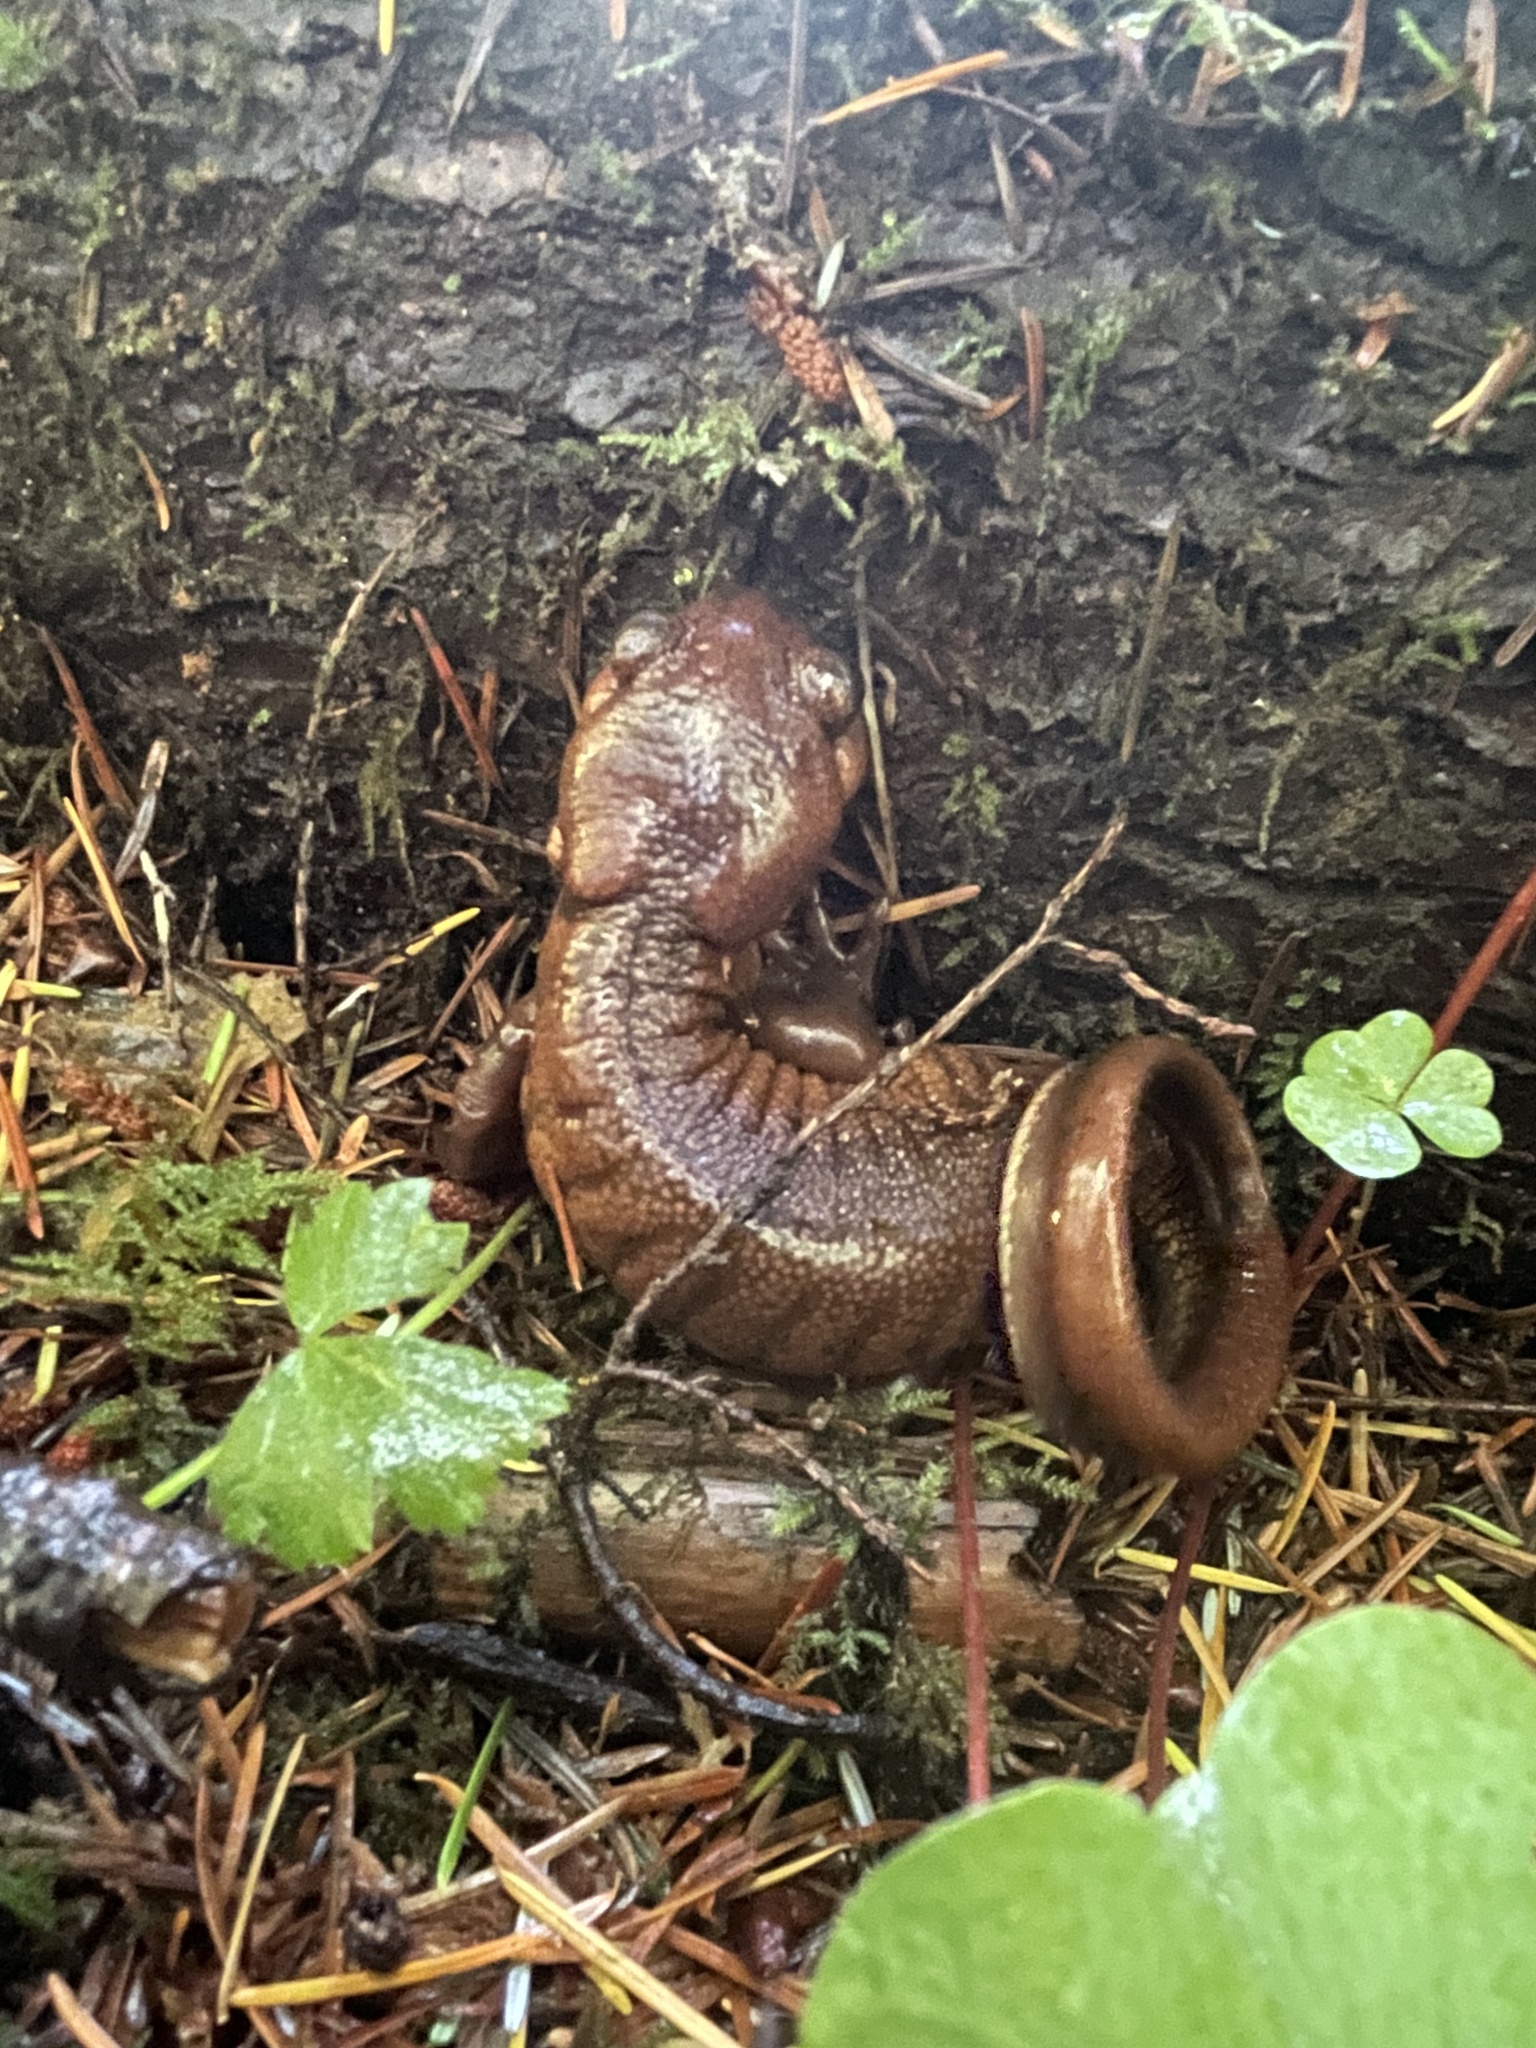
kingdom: Animalia
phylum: Chordata
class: Amphibia
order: Caudata
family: Ambystomatidae
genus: Ambystoma
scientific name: Ambystoma gracile
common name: Northwestern salamander
